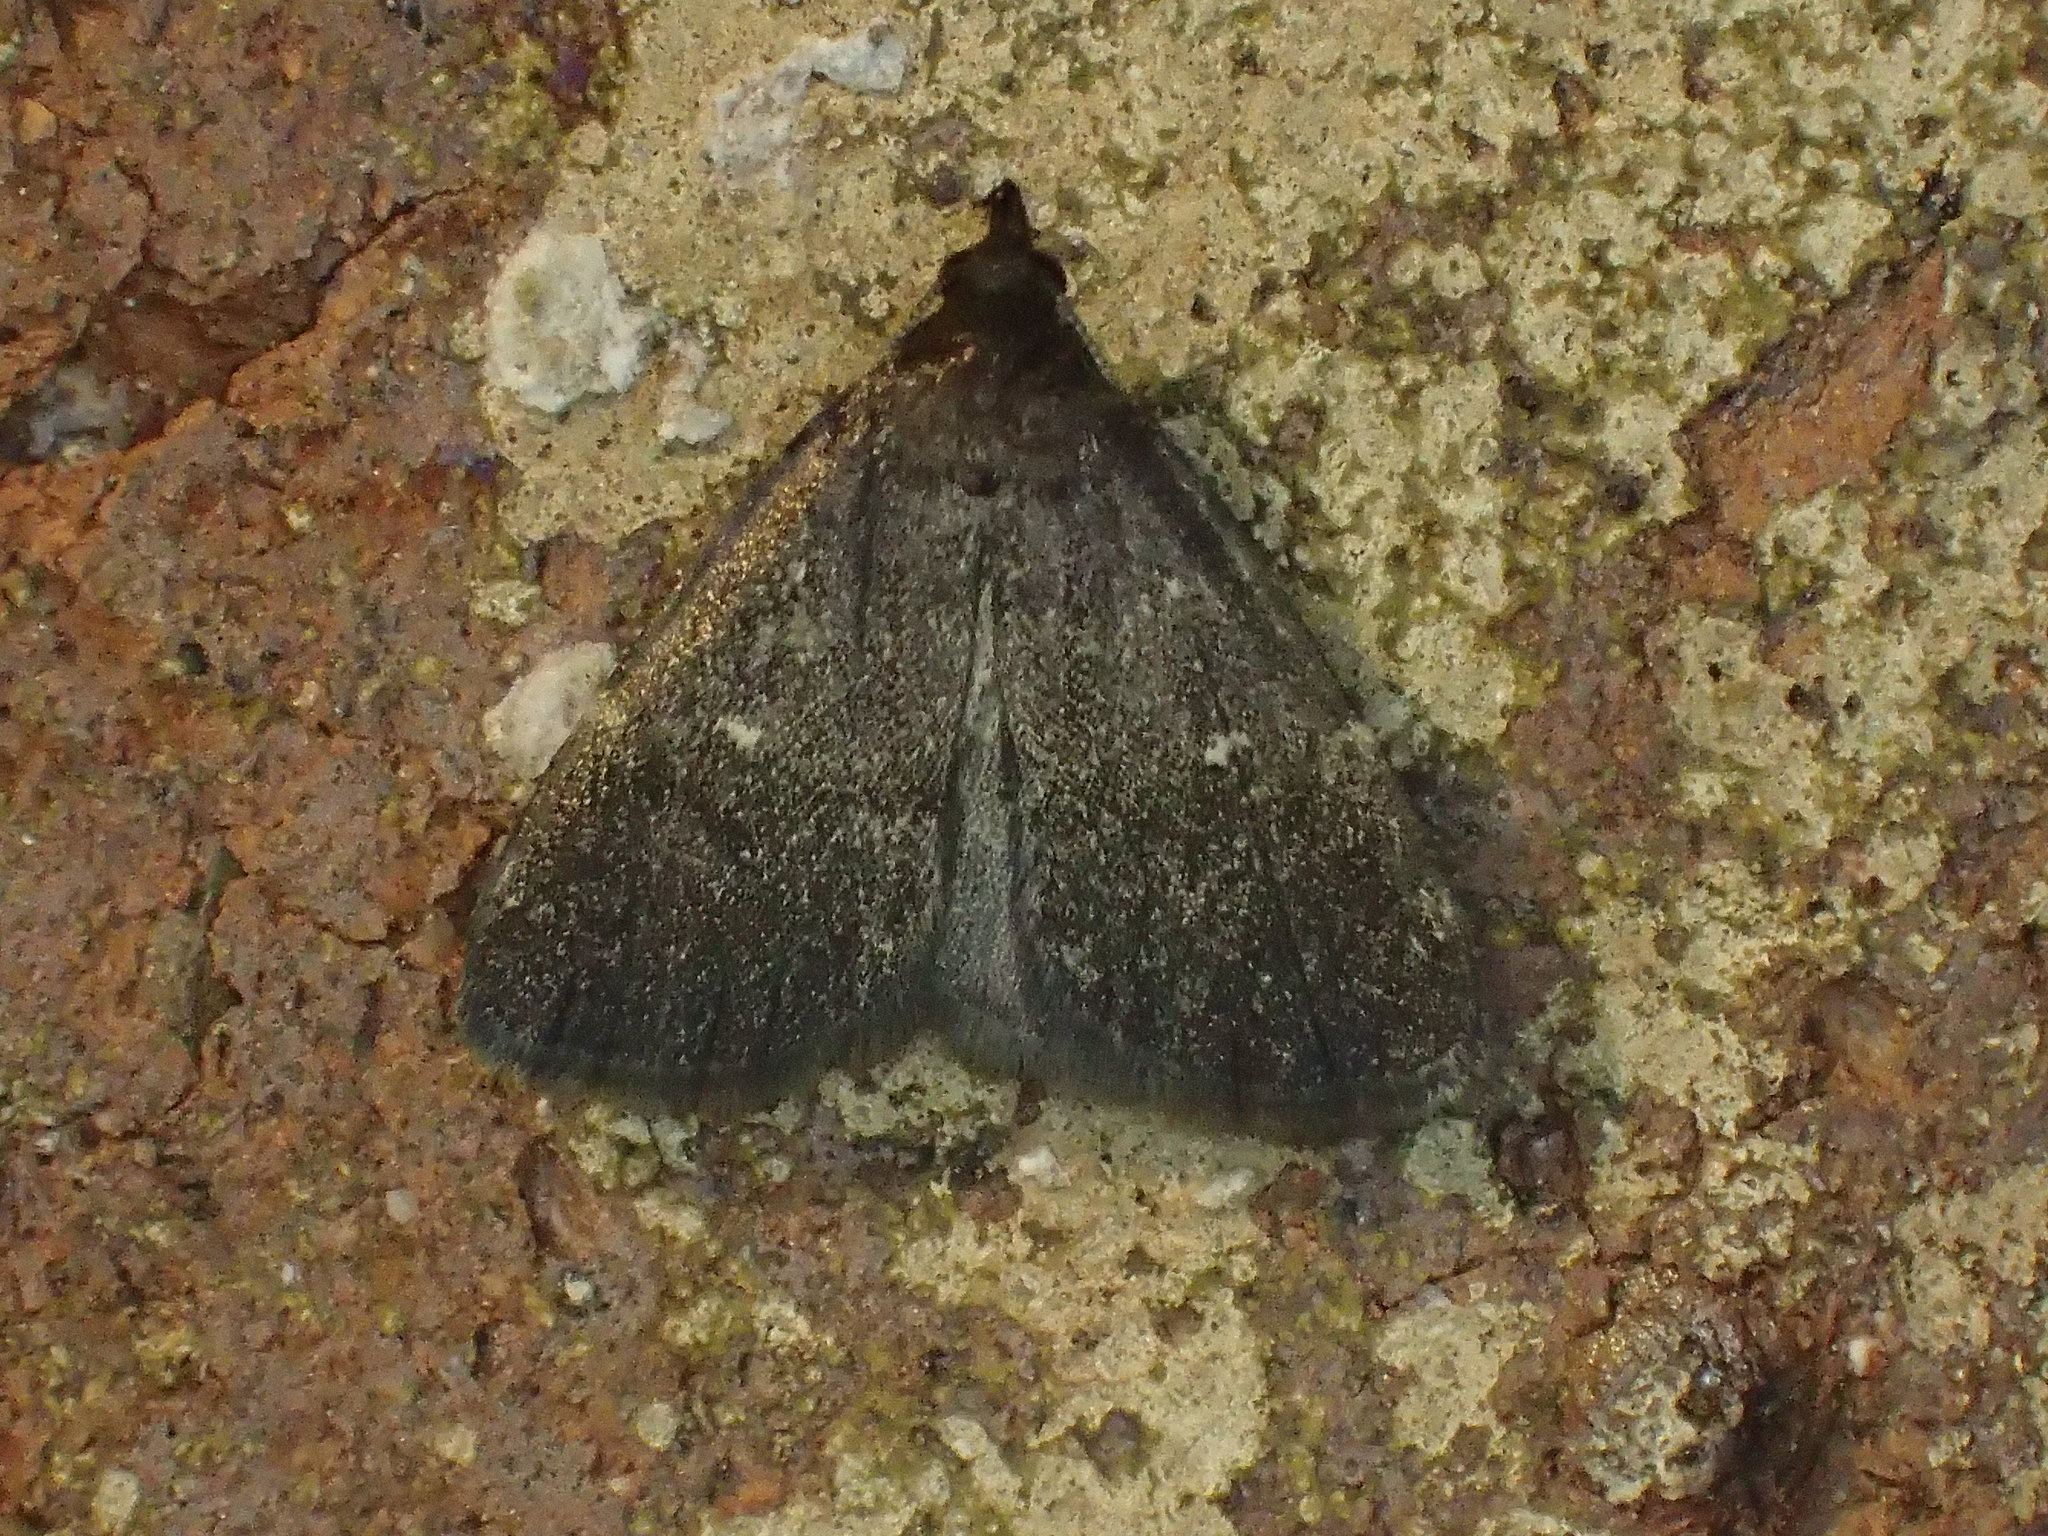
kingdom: Animalia
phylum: Arthropoda
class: Insecta
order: Lepidoptera
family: Erebidae
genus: Idia
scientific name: Idia julia
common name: Julia's idia moth
